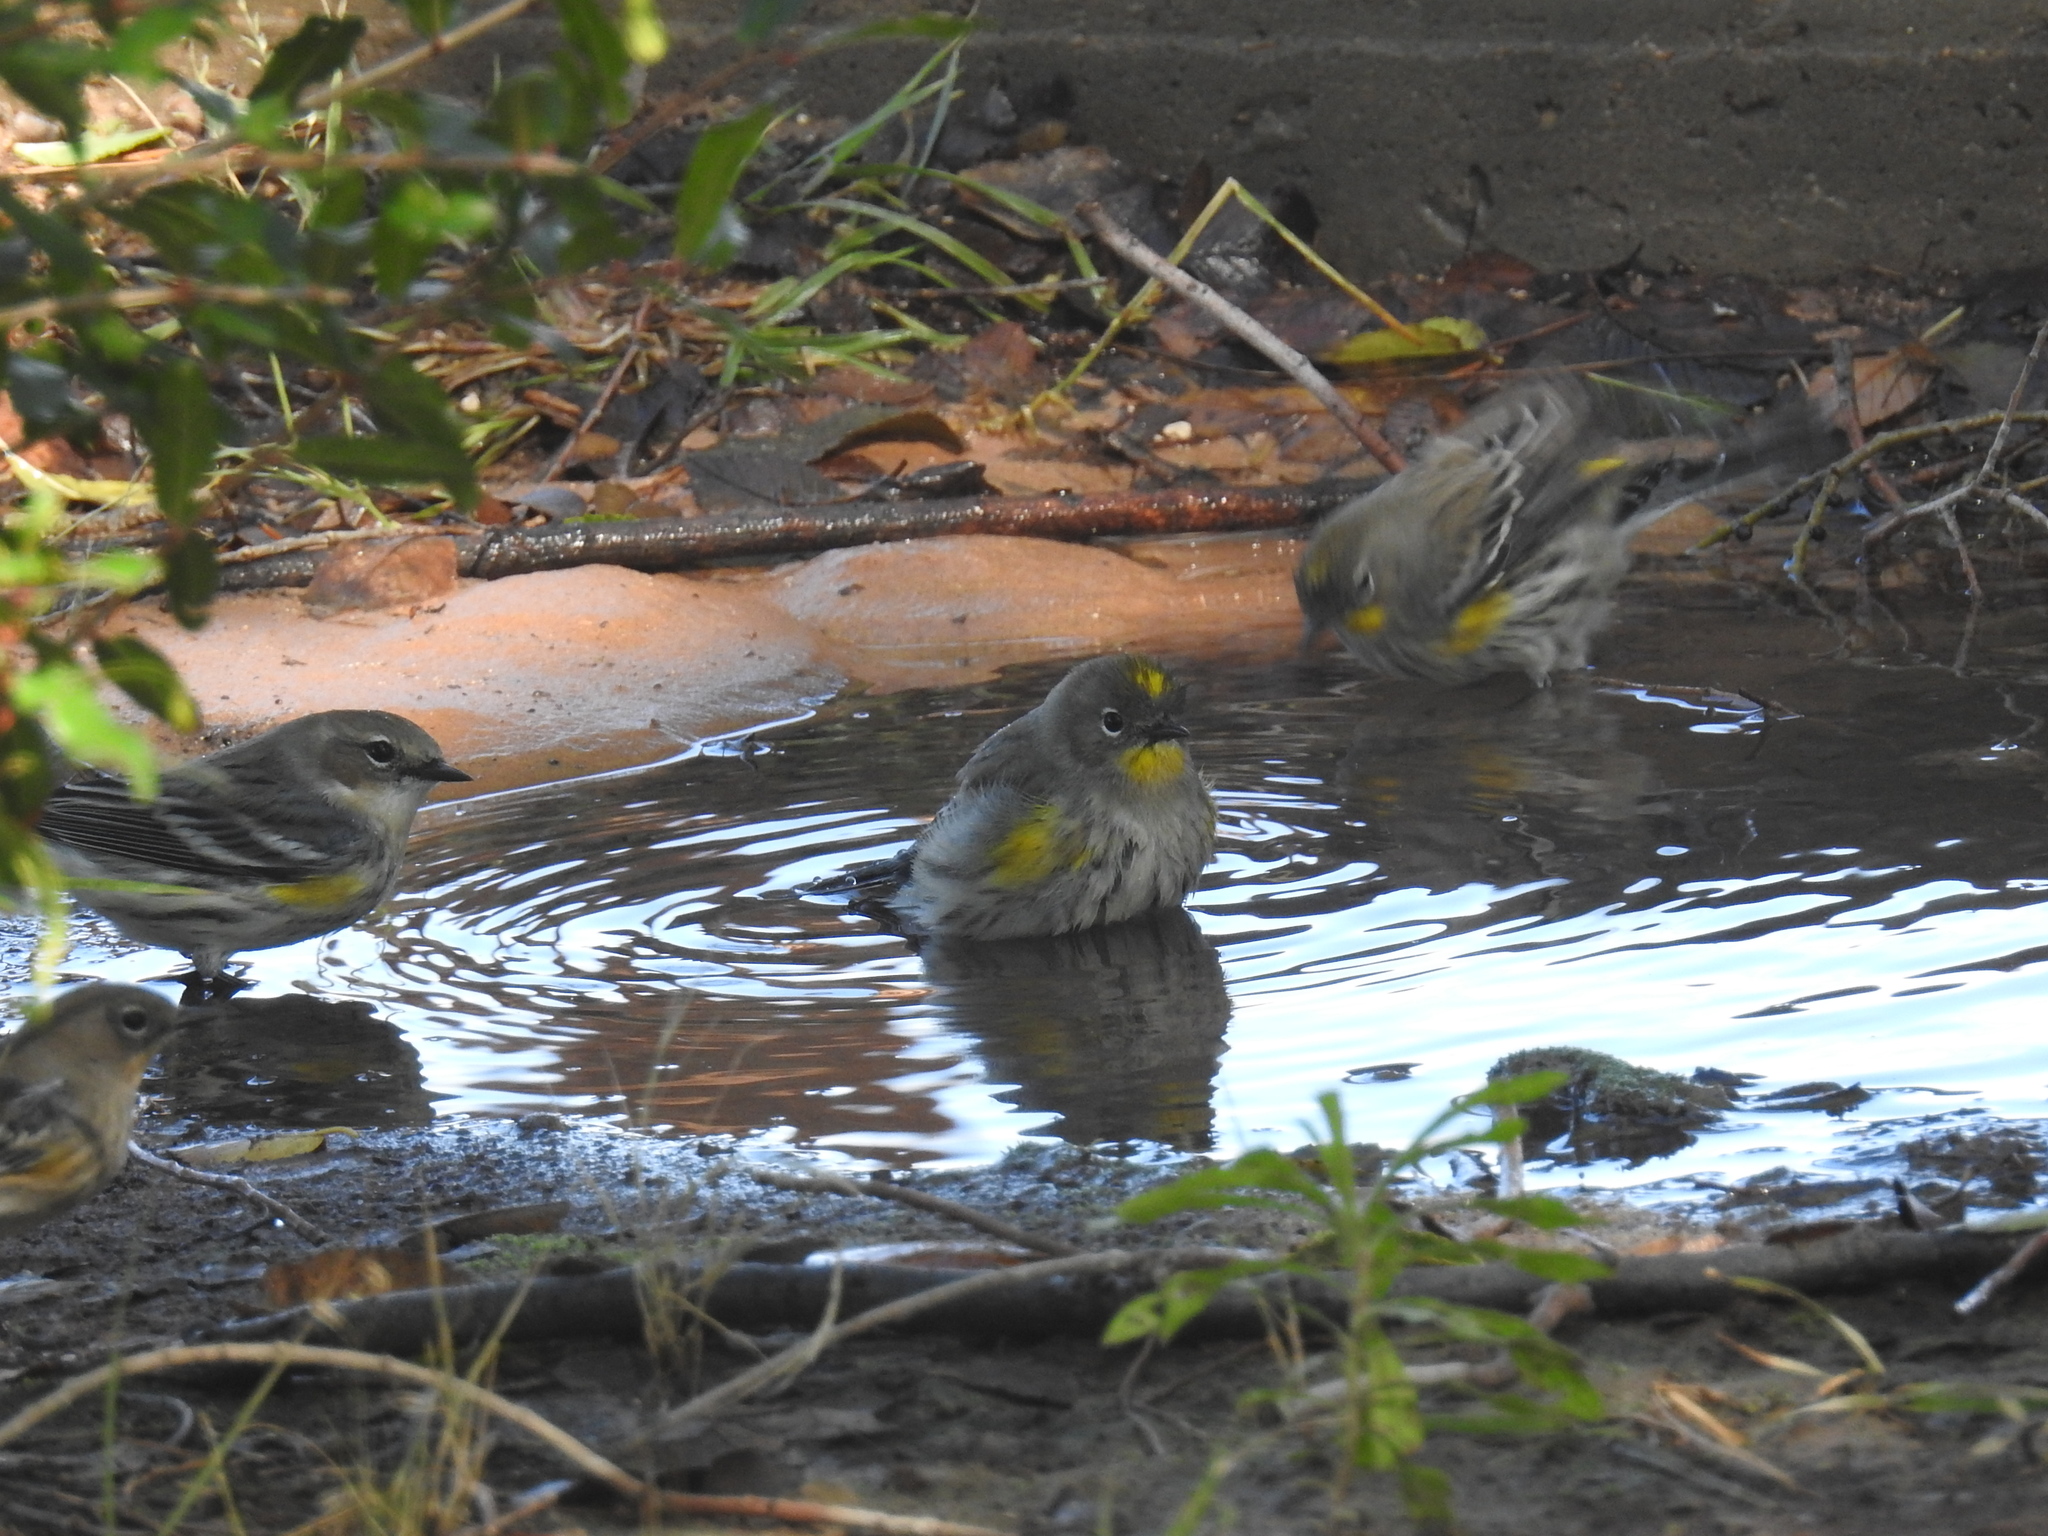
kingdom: Animalia
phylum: Chordata
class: Aves
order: Passeriformes
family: Parulidae
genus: Setophaga
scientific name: Setophaga coronata
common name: Myrtle warbler
